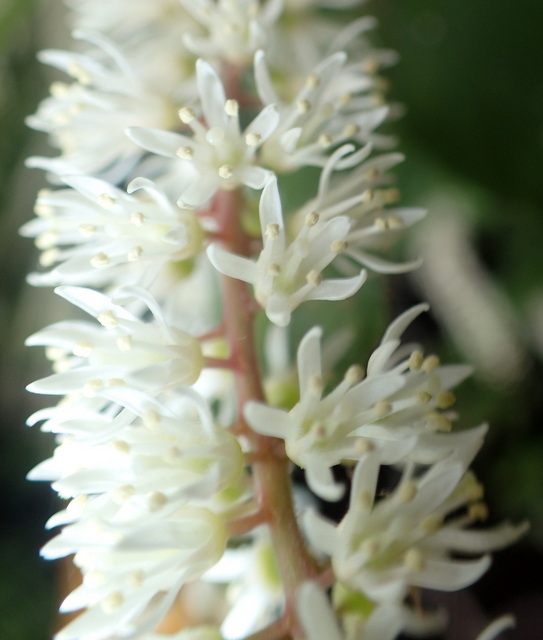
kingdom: Plantae
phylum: Tracheophyta
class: Magnoliopsida
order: Saxifragales
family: Iteaceae
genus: Itea
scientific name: Itea virginica
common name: Sweetspire
